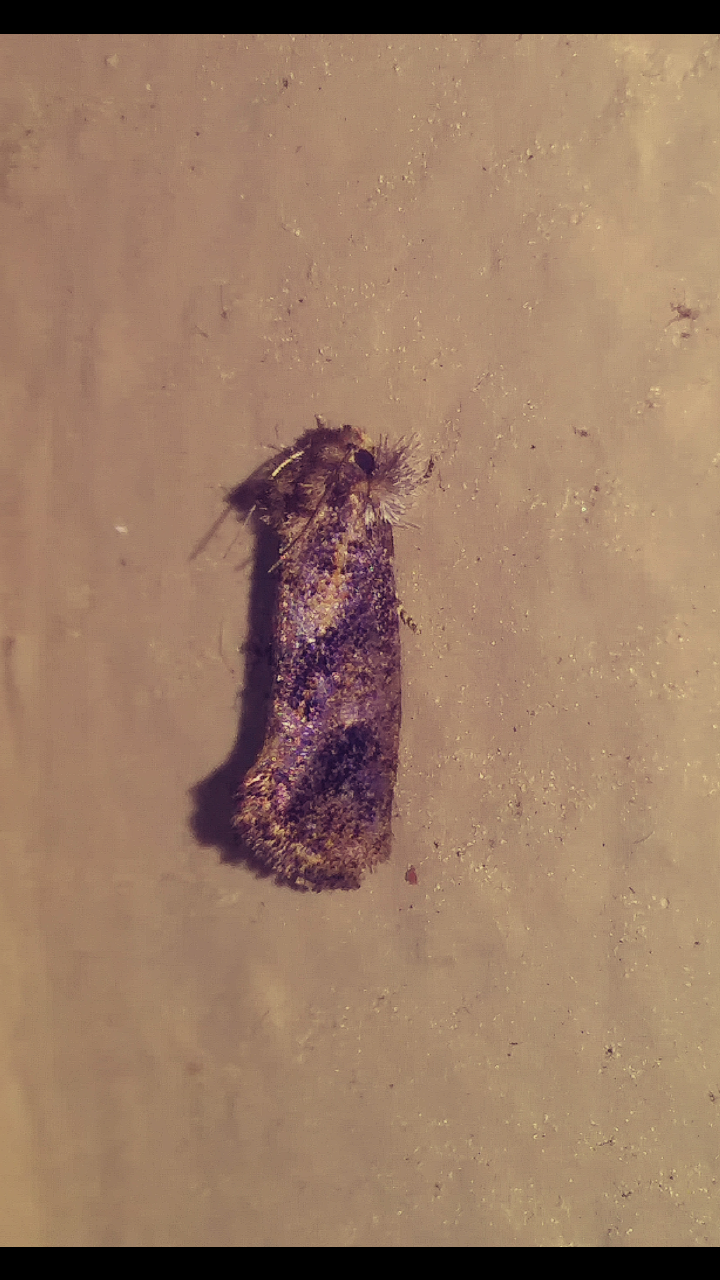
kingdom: Animalia
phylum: Arthropoda
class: Insecta
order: Lepidoptera
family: Tineidae
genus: Acrolophus
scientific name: Acrolophus panamae
